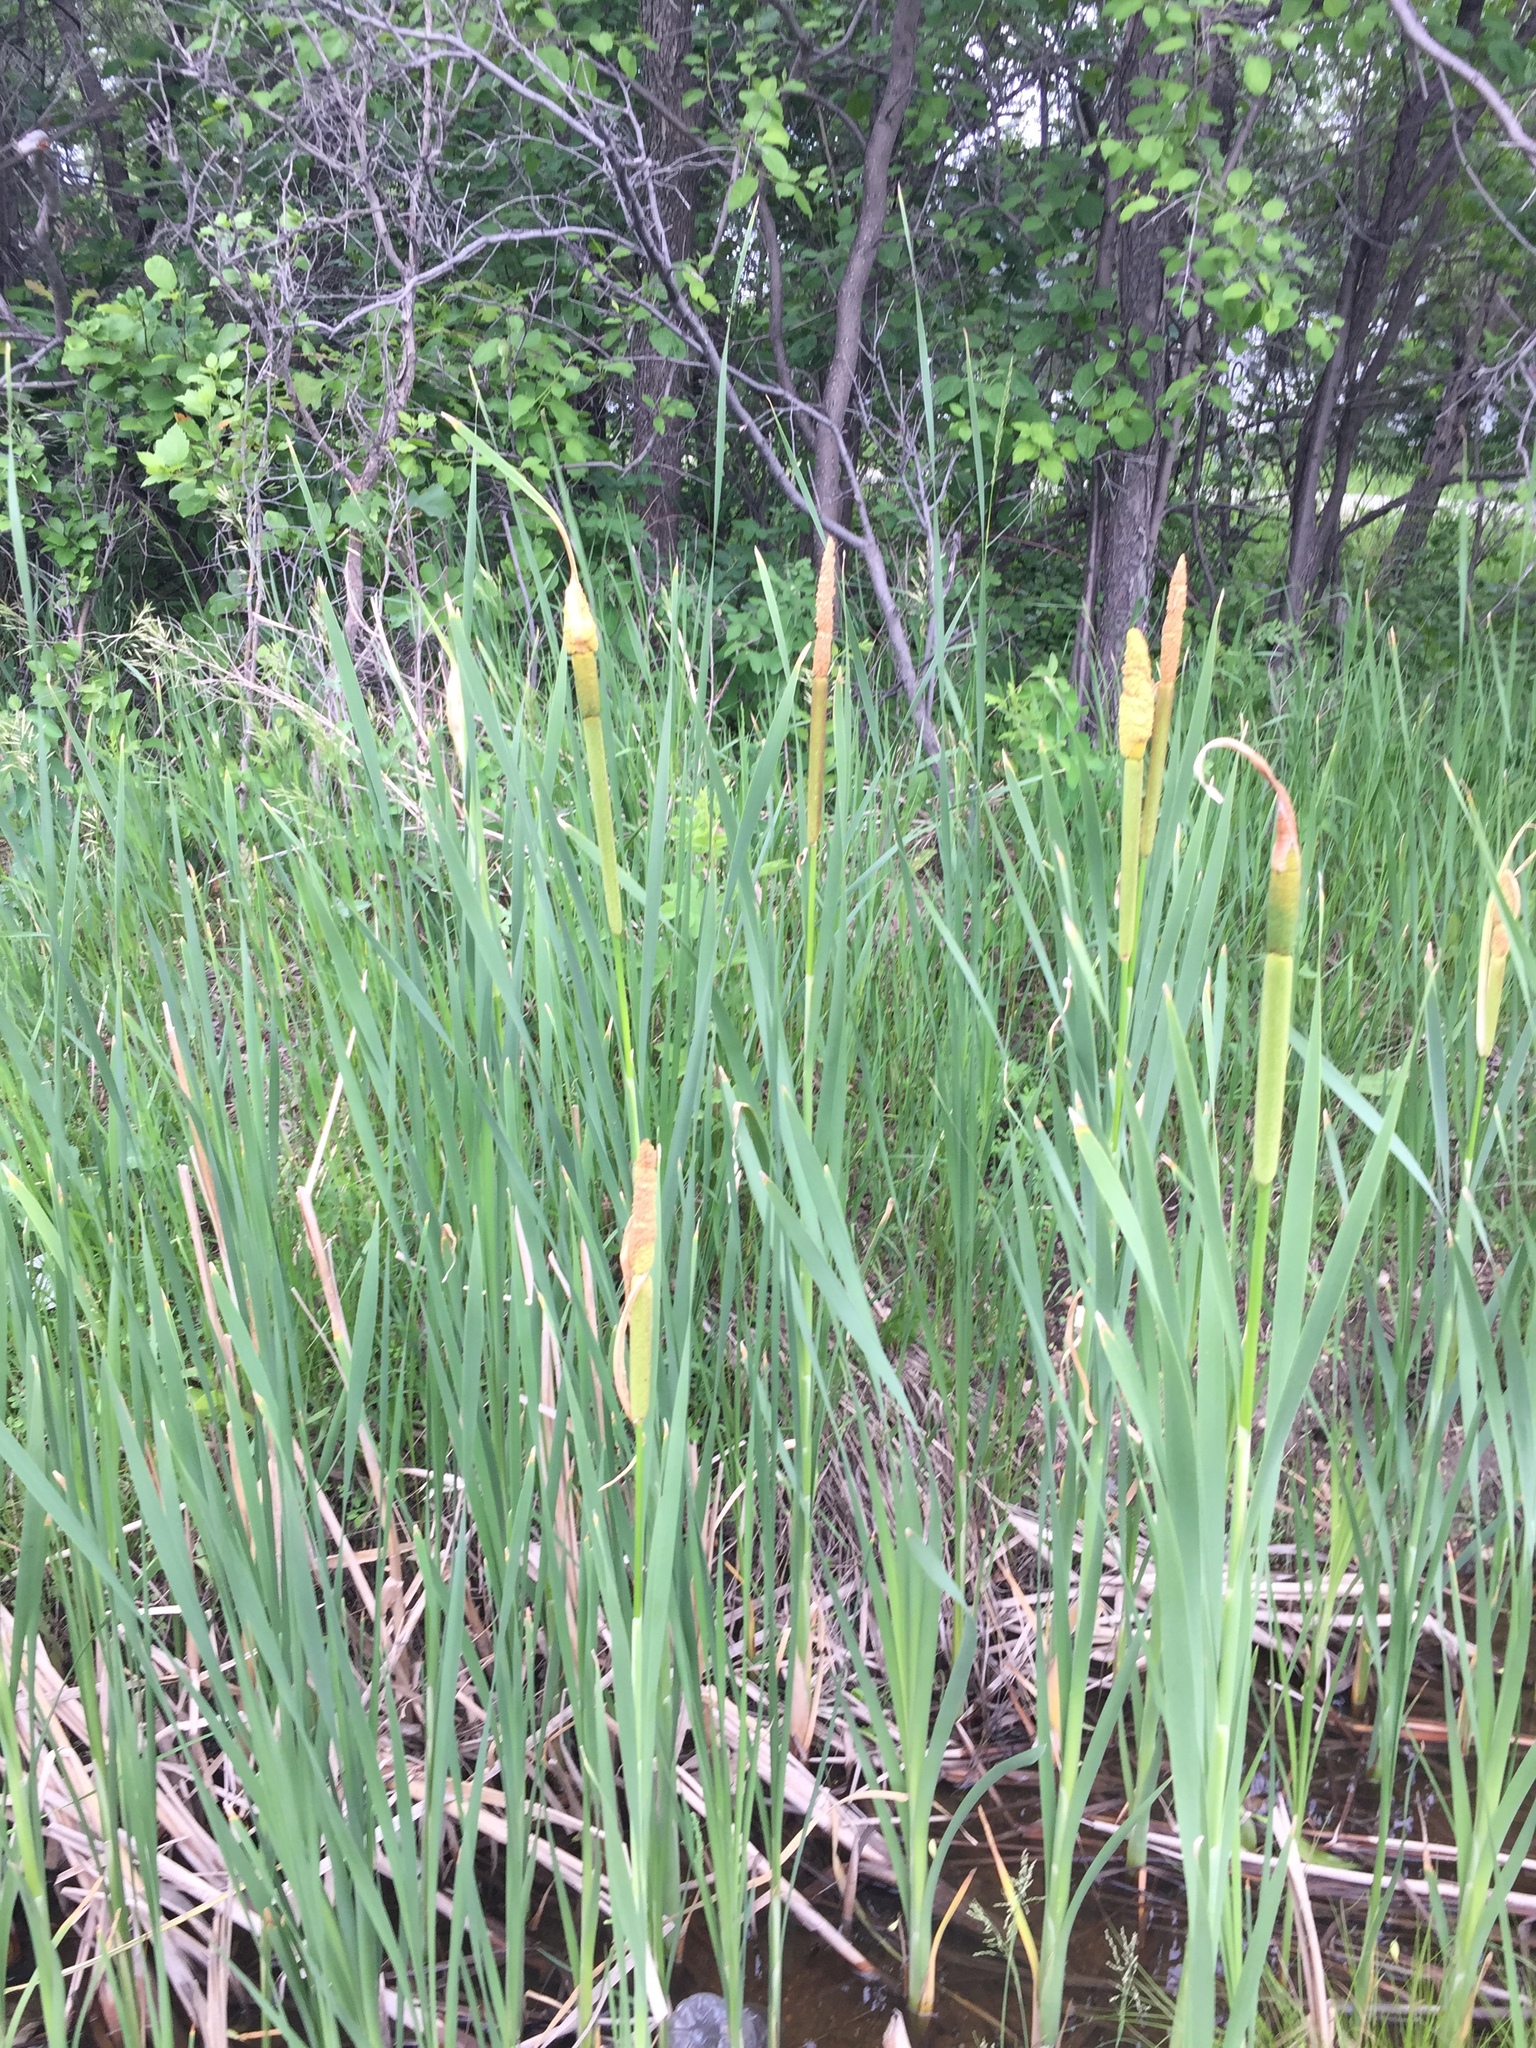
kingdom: Plantae
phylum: Tracheophyta
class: Liliopsida
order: Poales
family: Typhaceae
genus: Typha
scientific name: Typha latifolia
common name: Broadleaf cattail
